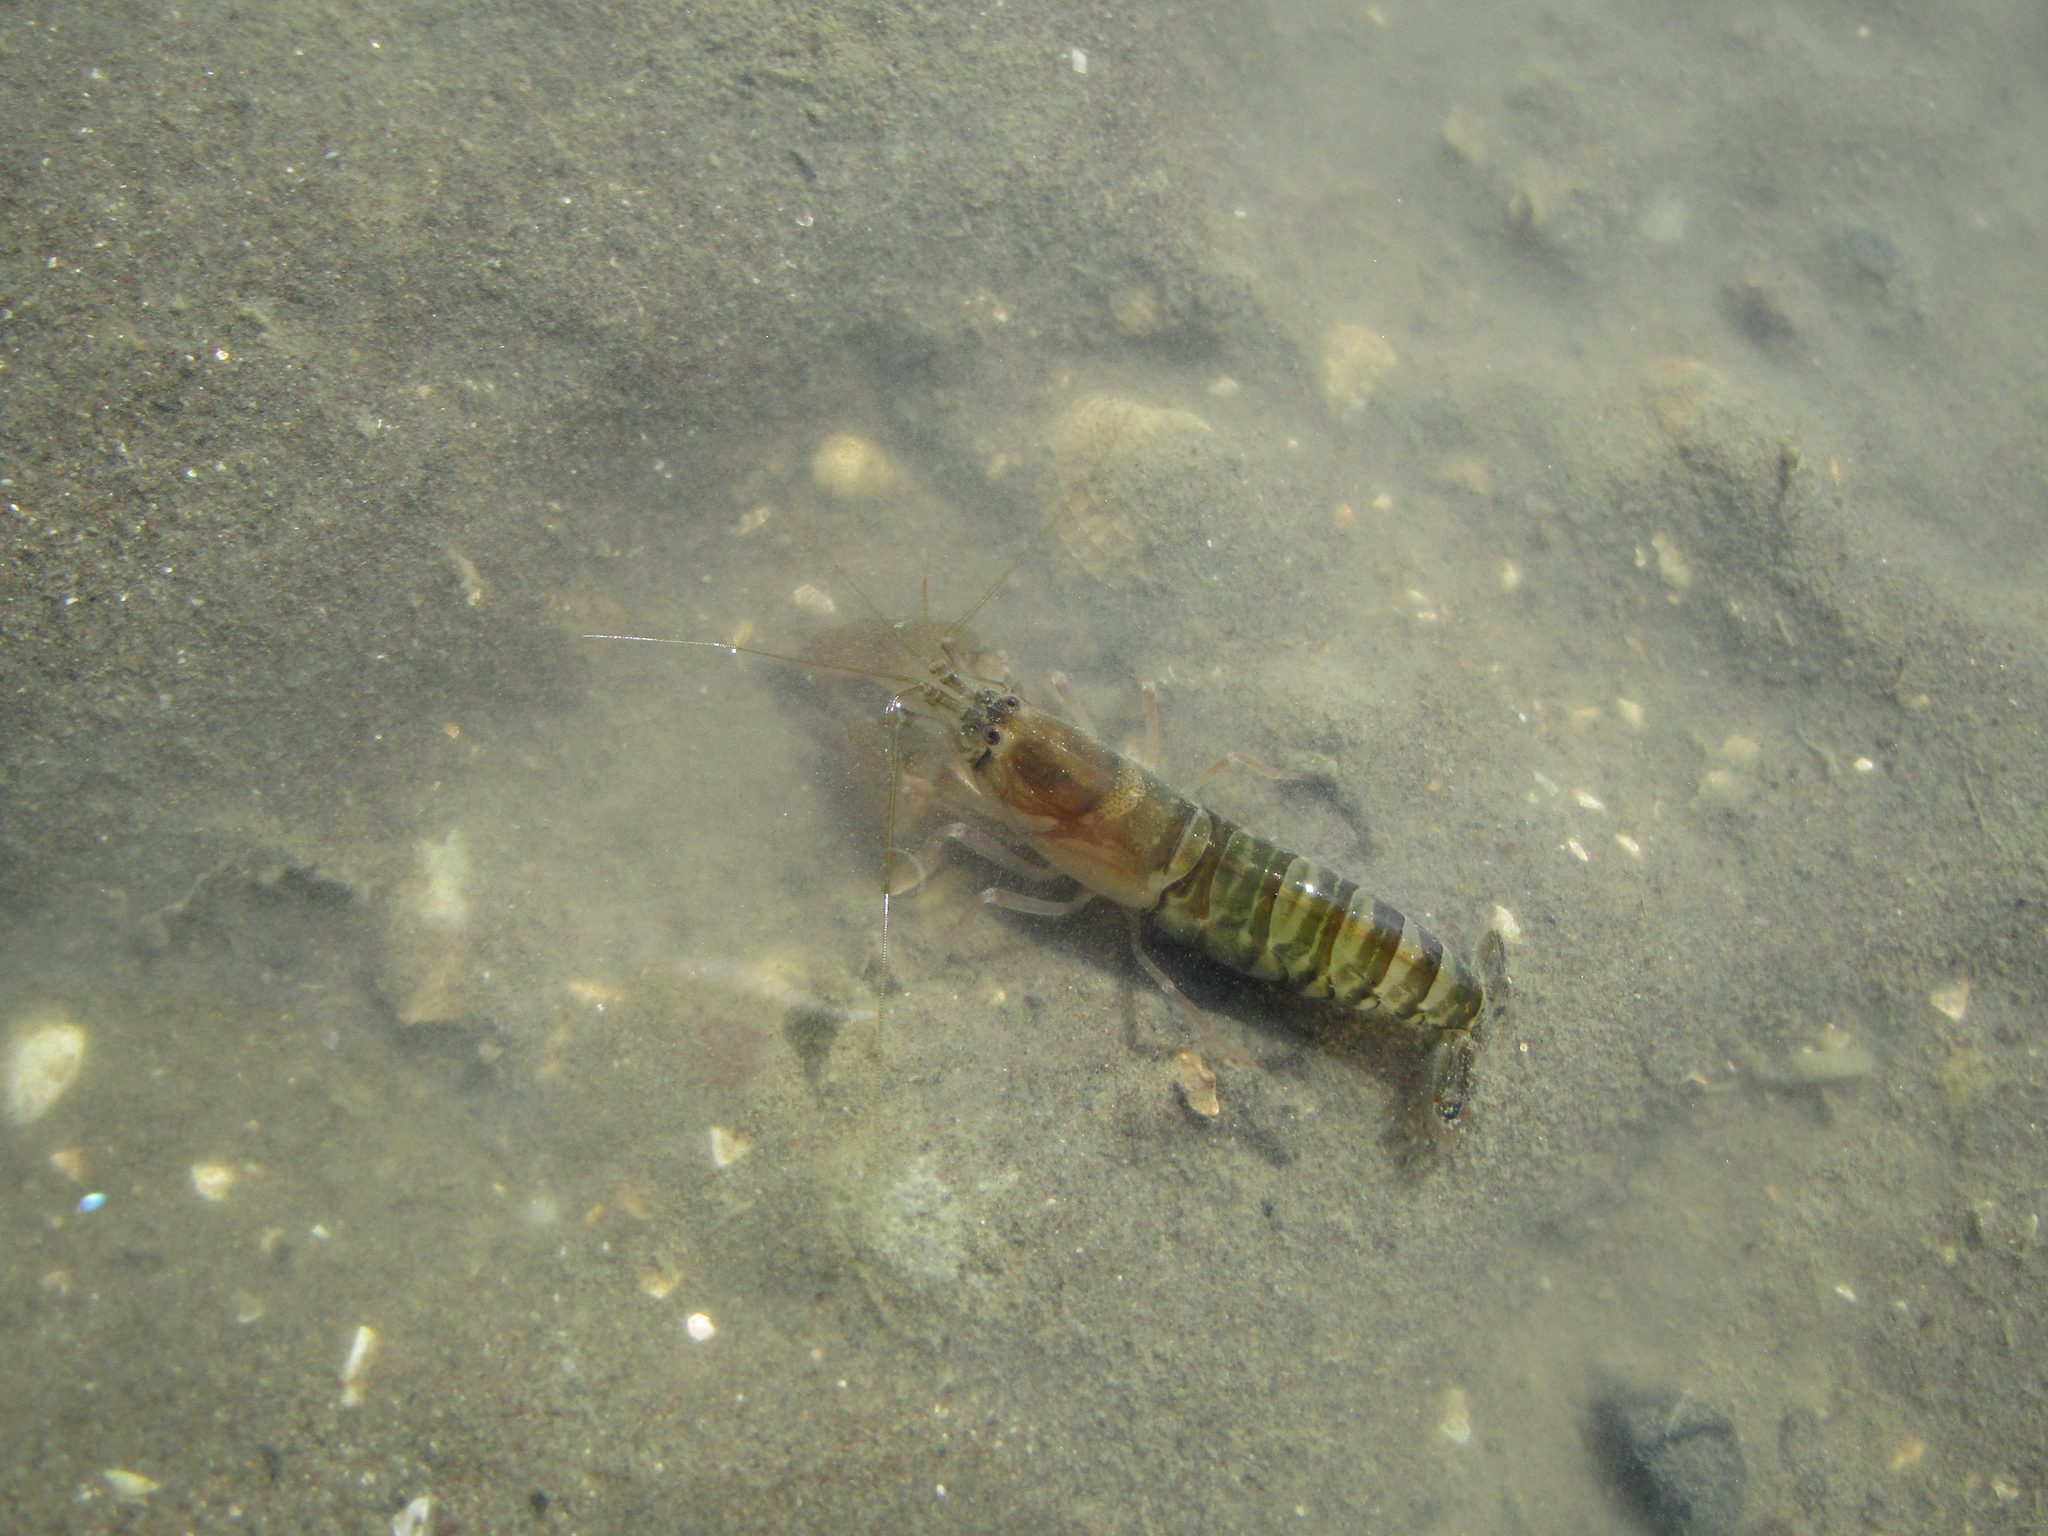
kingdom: Animalia
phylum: Arthropoda
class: Malacostraca
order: Decapoda
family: Alpheidae
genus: Alpheus
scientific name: Alpheus richardsoni
